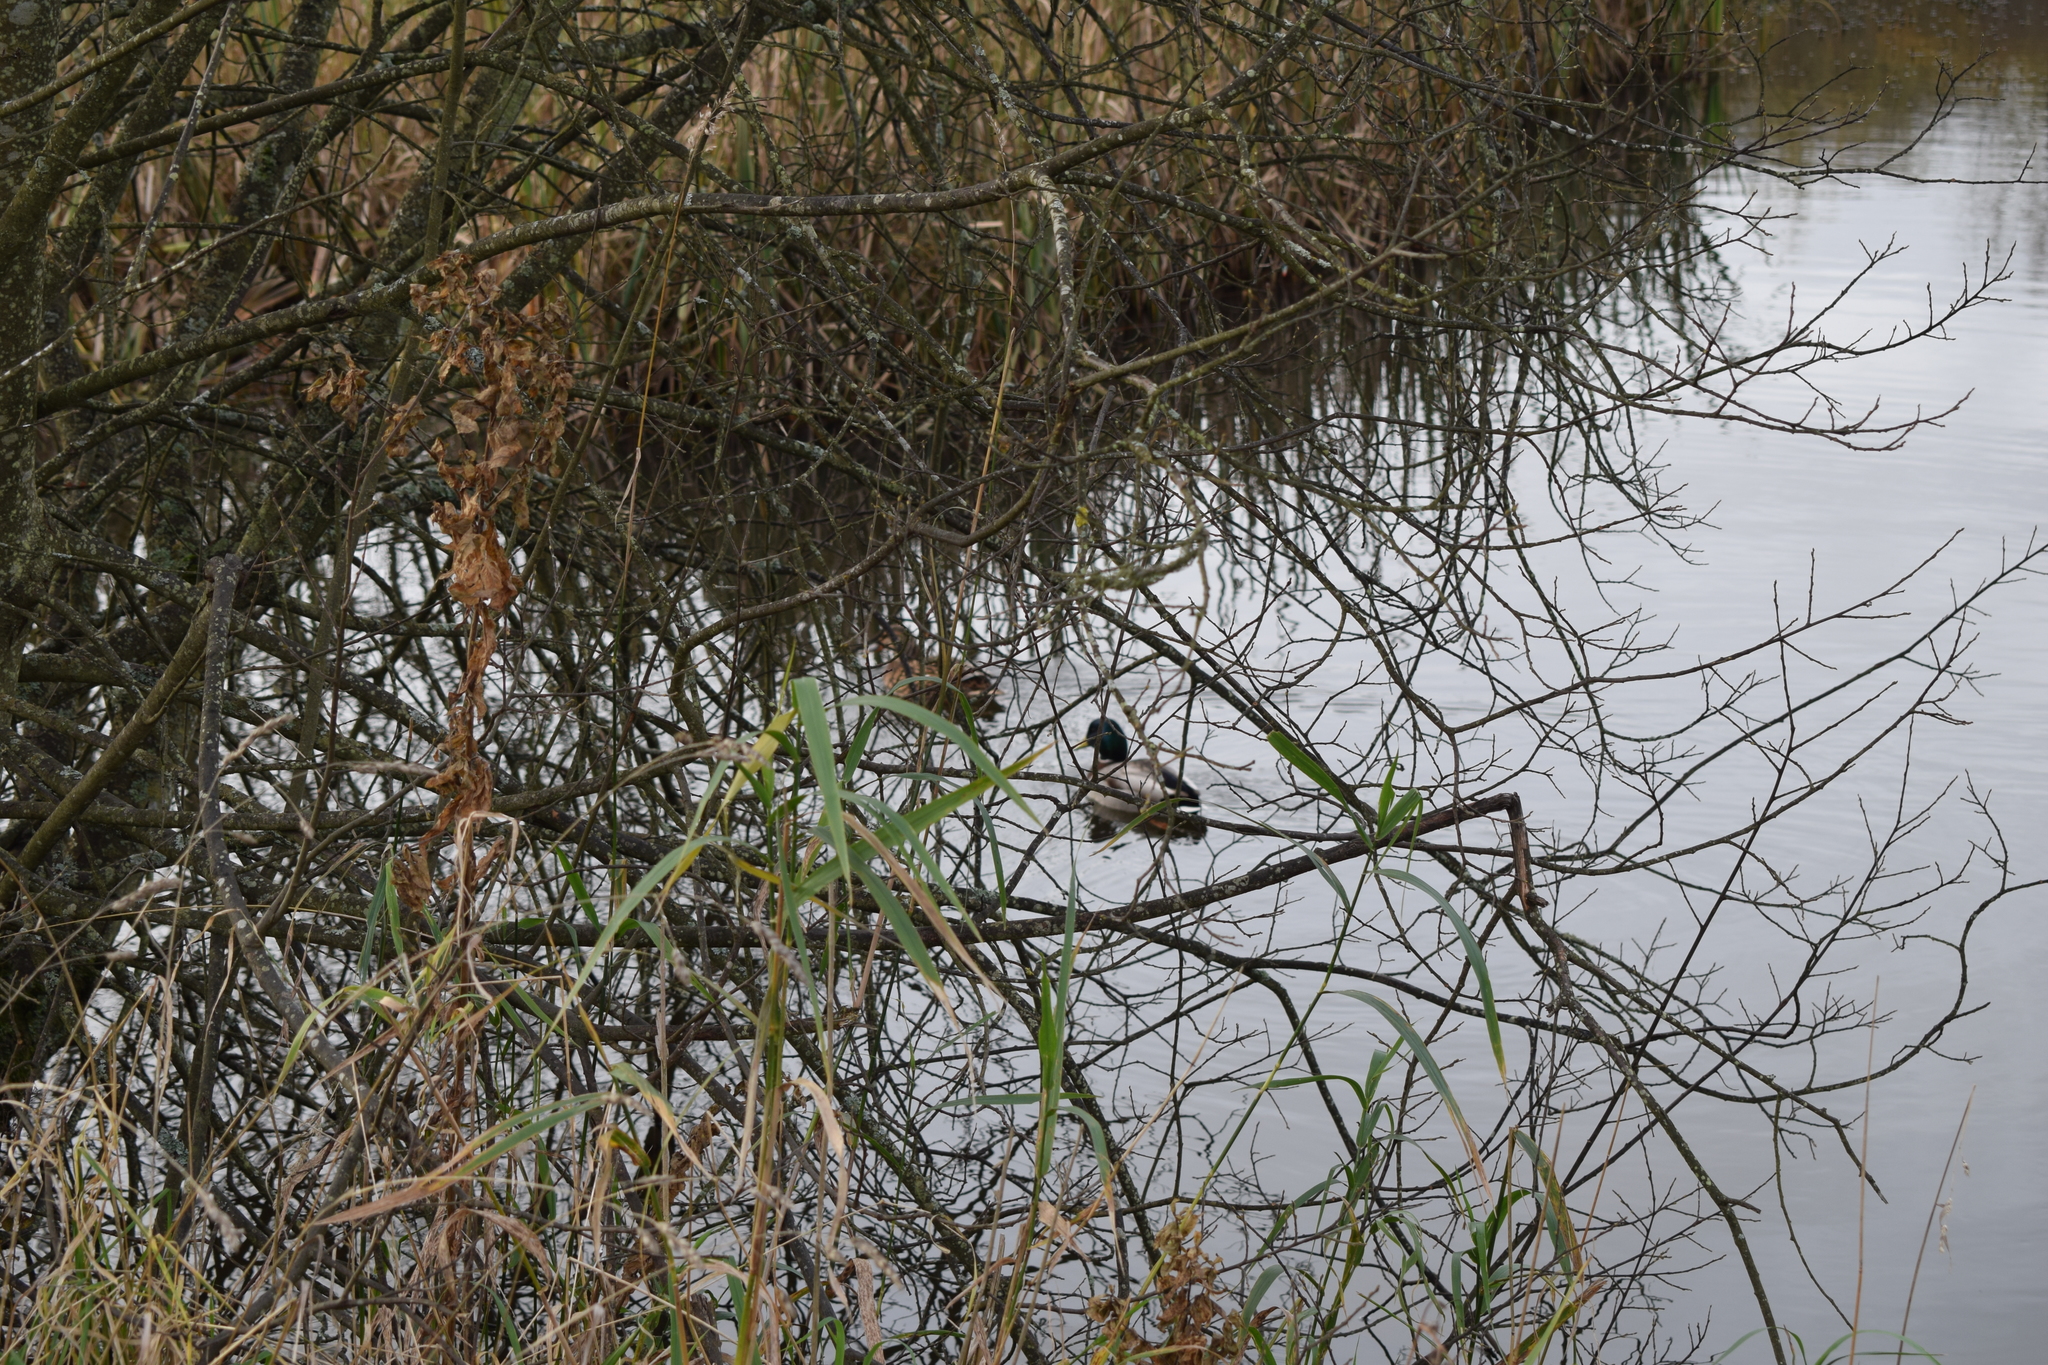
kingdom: Animalia
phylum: Chordata
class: Aves
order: Anseriformes
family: Anatidae
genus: Anas
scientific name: Anas platyrhynchos
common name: Mallard
